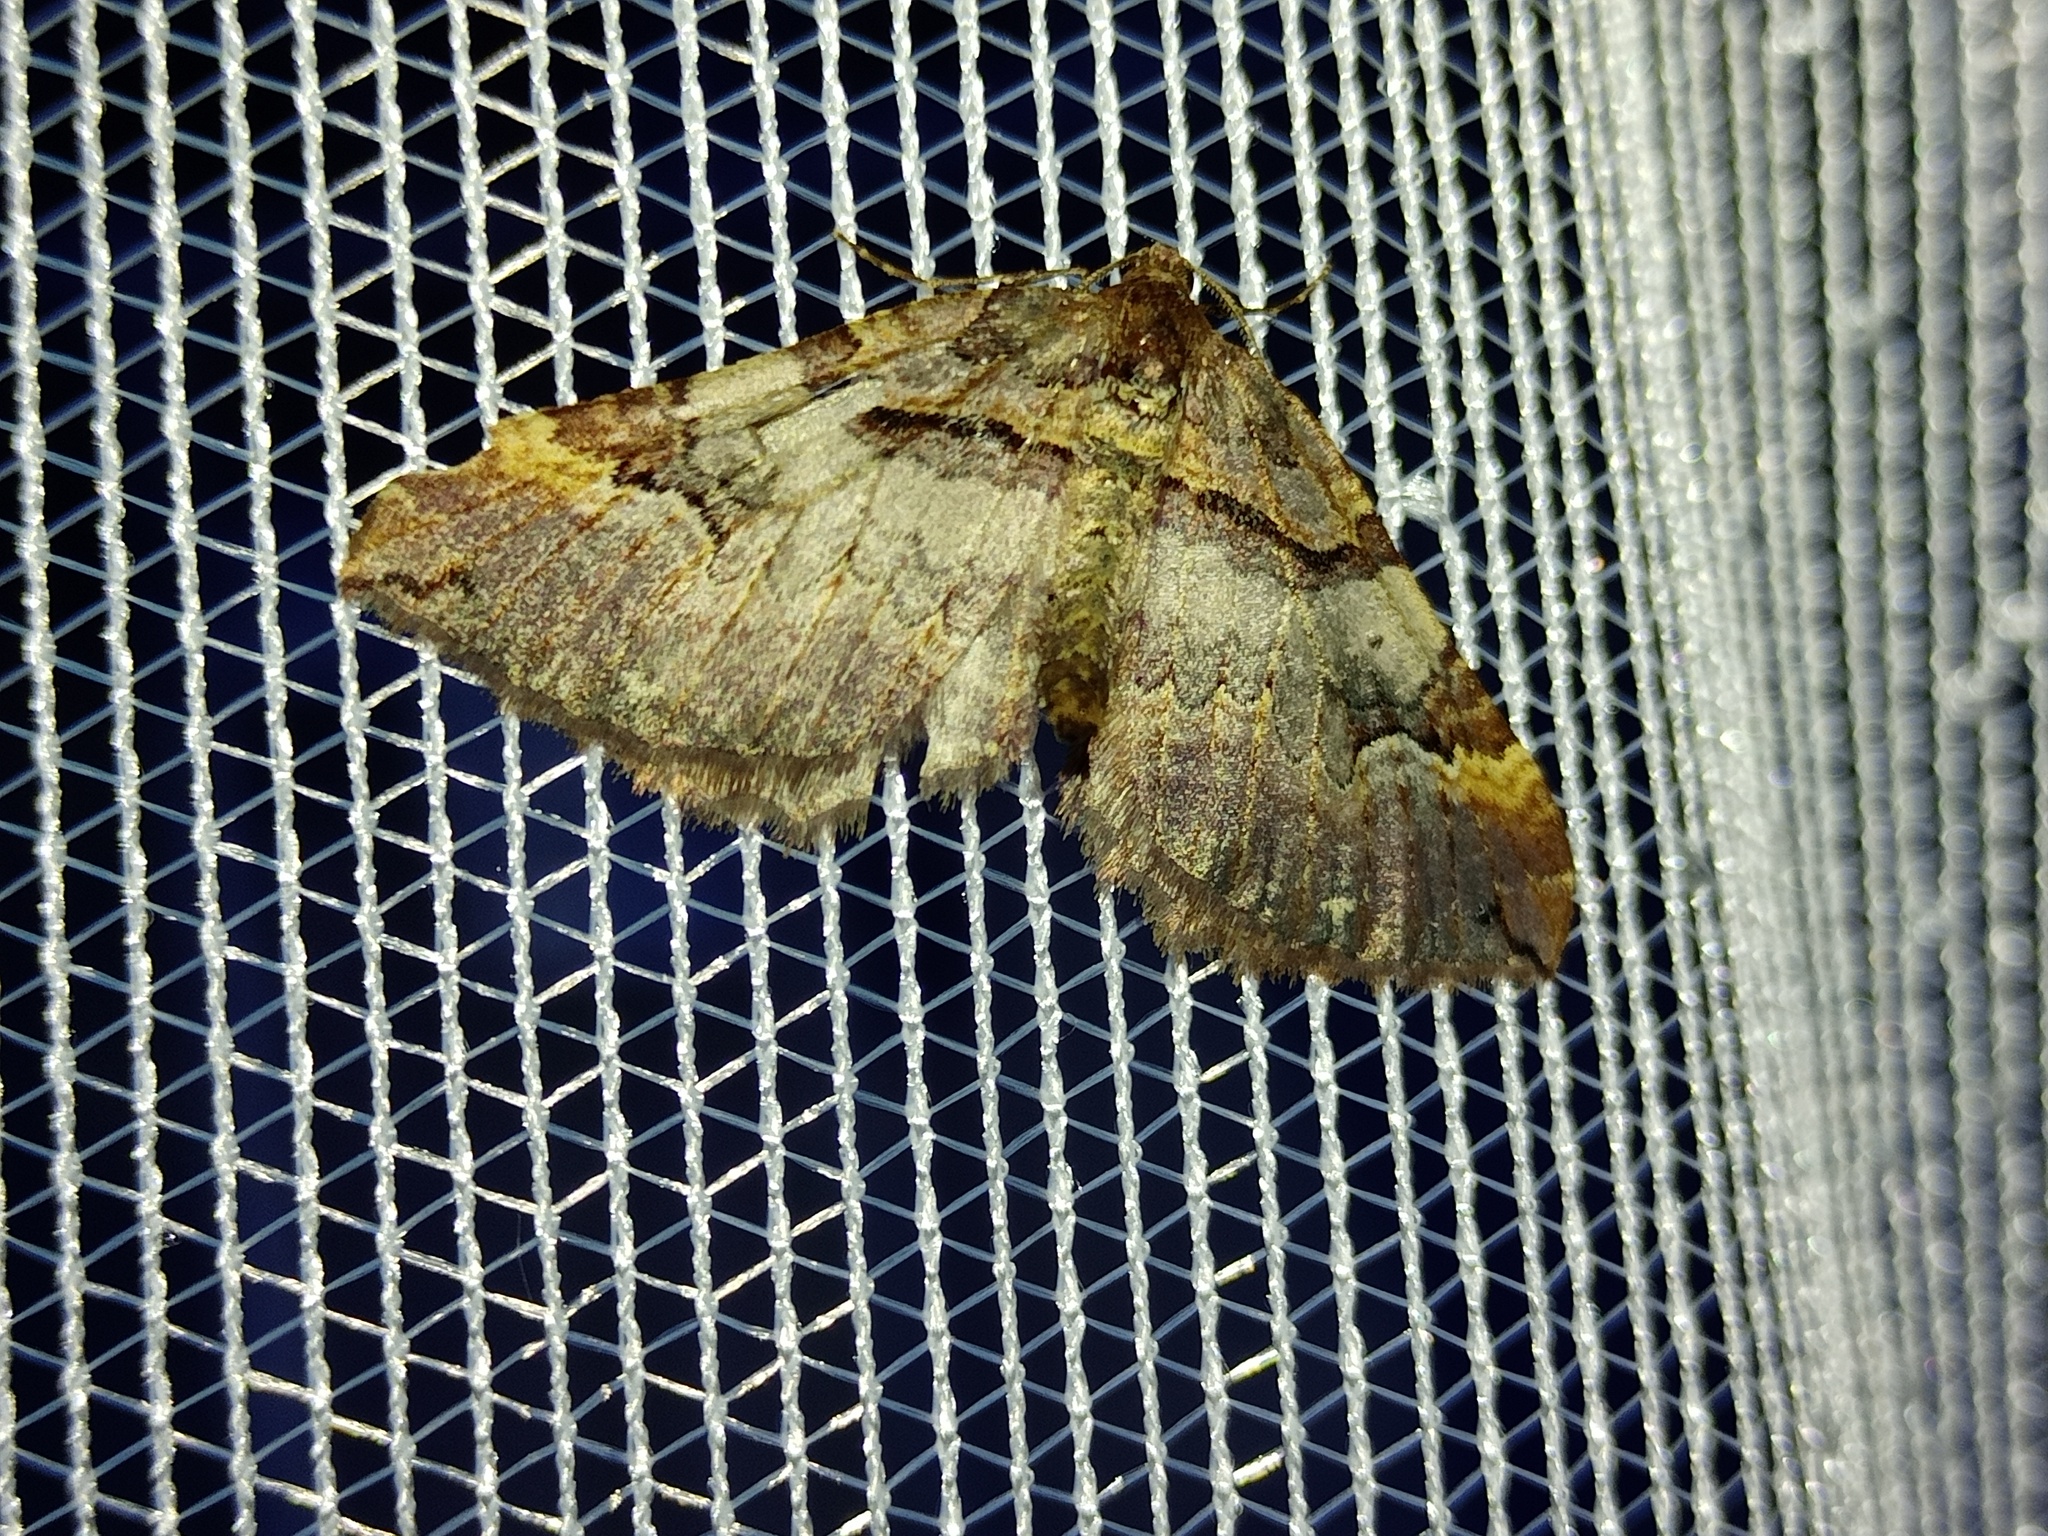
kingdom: Animalia
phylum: Arthropoda
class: Insecta
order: Lepidoptera
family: Geometridae
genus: Anticlea
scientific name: Anticlea badiata
